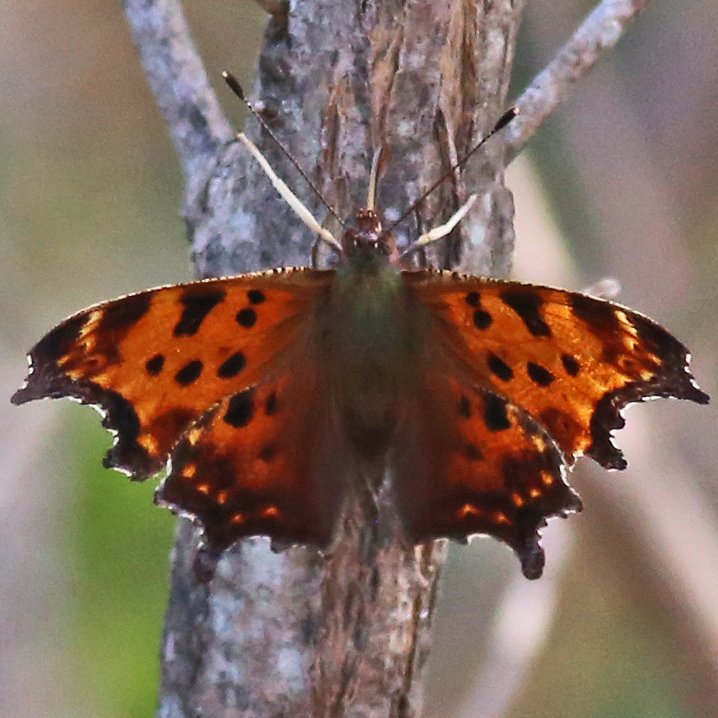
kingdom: Animalia
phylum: Arthropoda
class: Insecta
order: Lepidoptera
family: Nymphalidae
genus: Polygonia
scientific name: Polygonia comma
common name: Eastern comma
